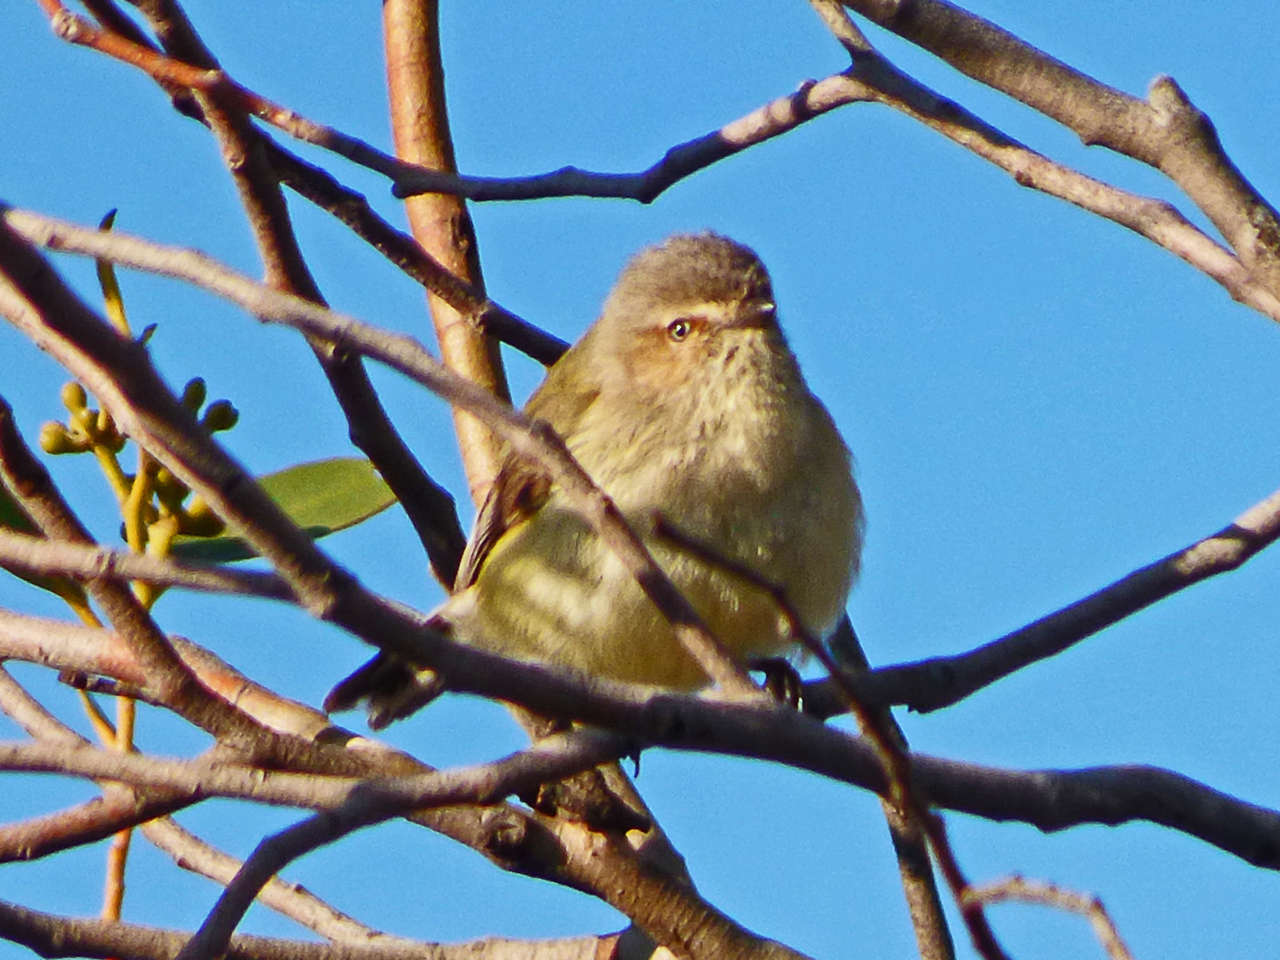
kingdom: Animalia
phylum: Chordata
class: Aves
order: Passeriformes
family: Acanthizidae
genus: Smicrornis
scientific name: Smicrornis brevirostris
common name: Weebill
